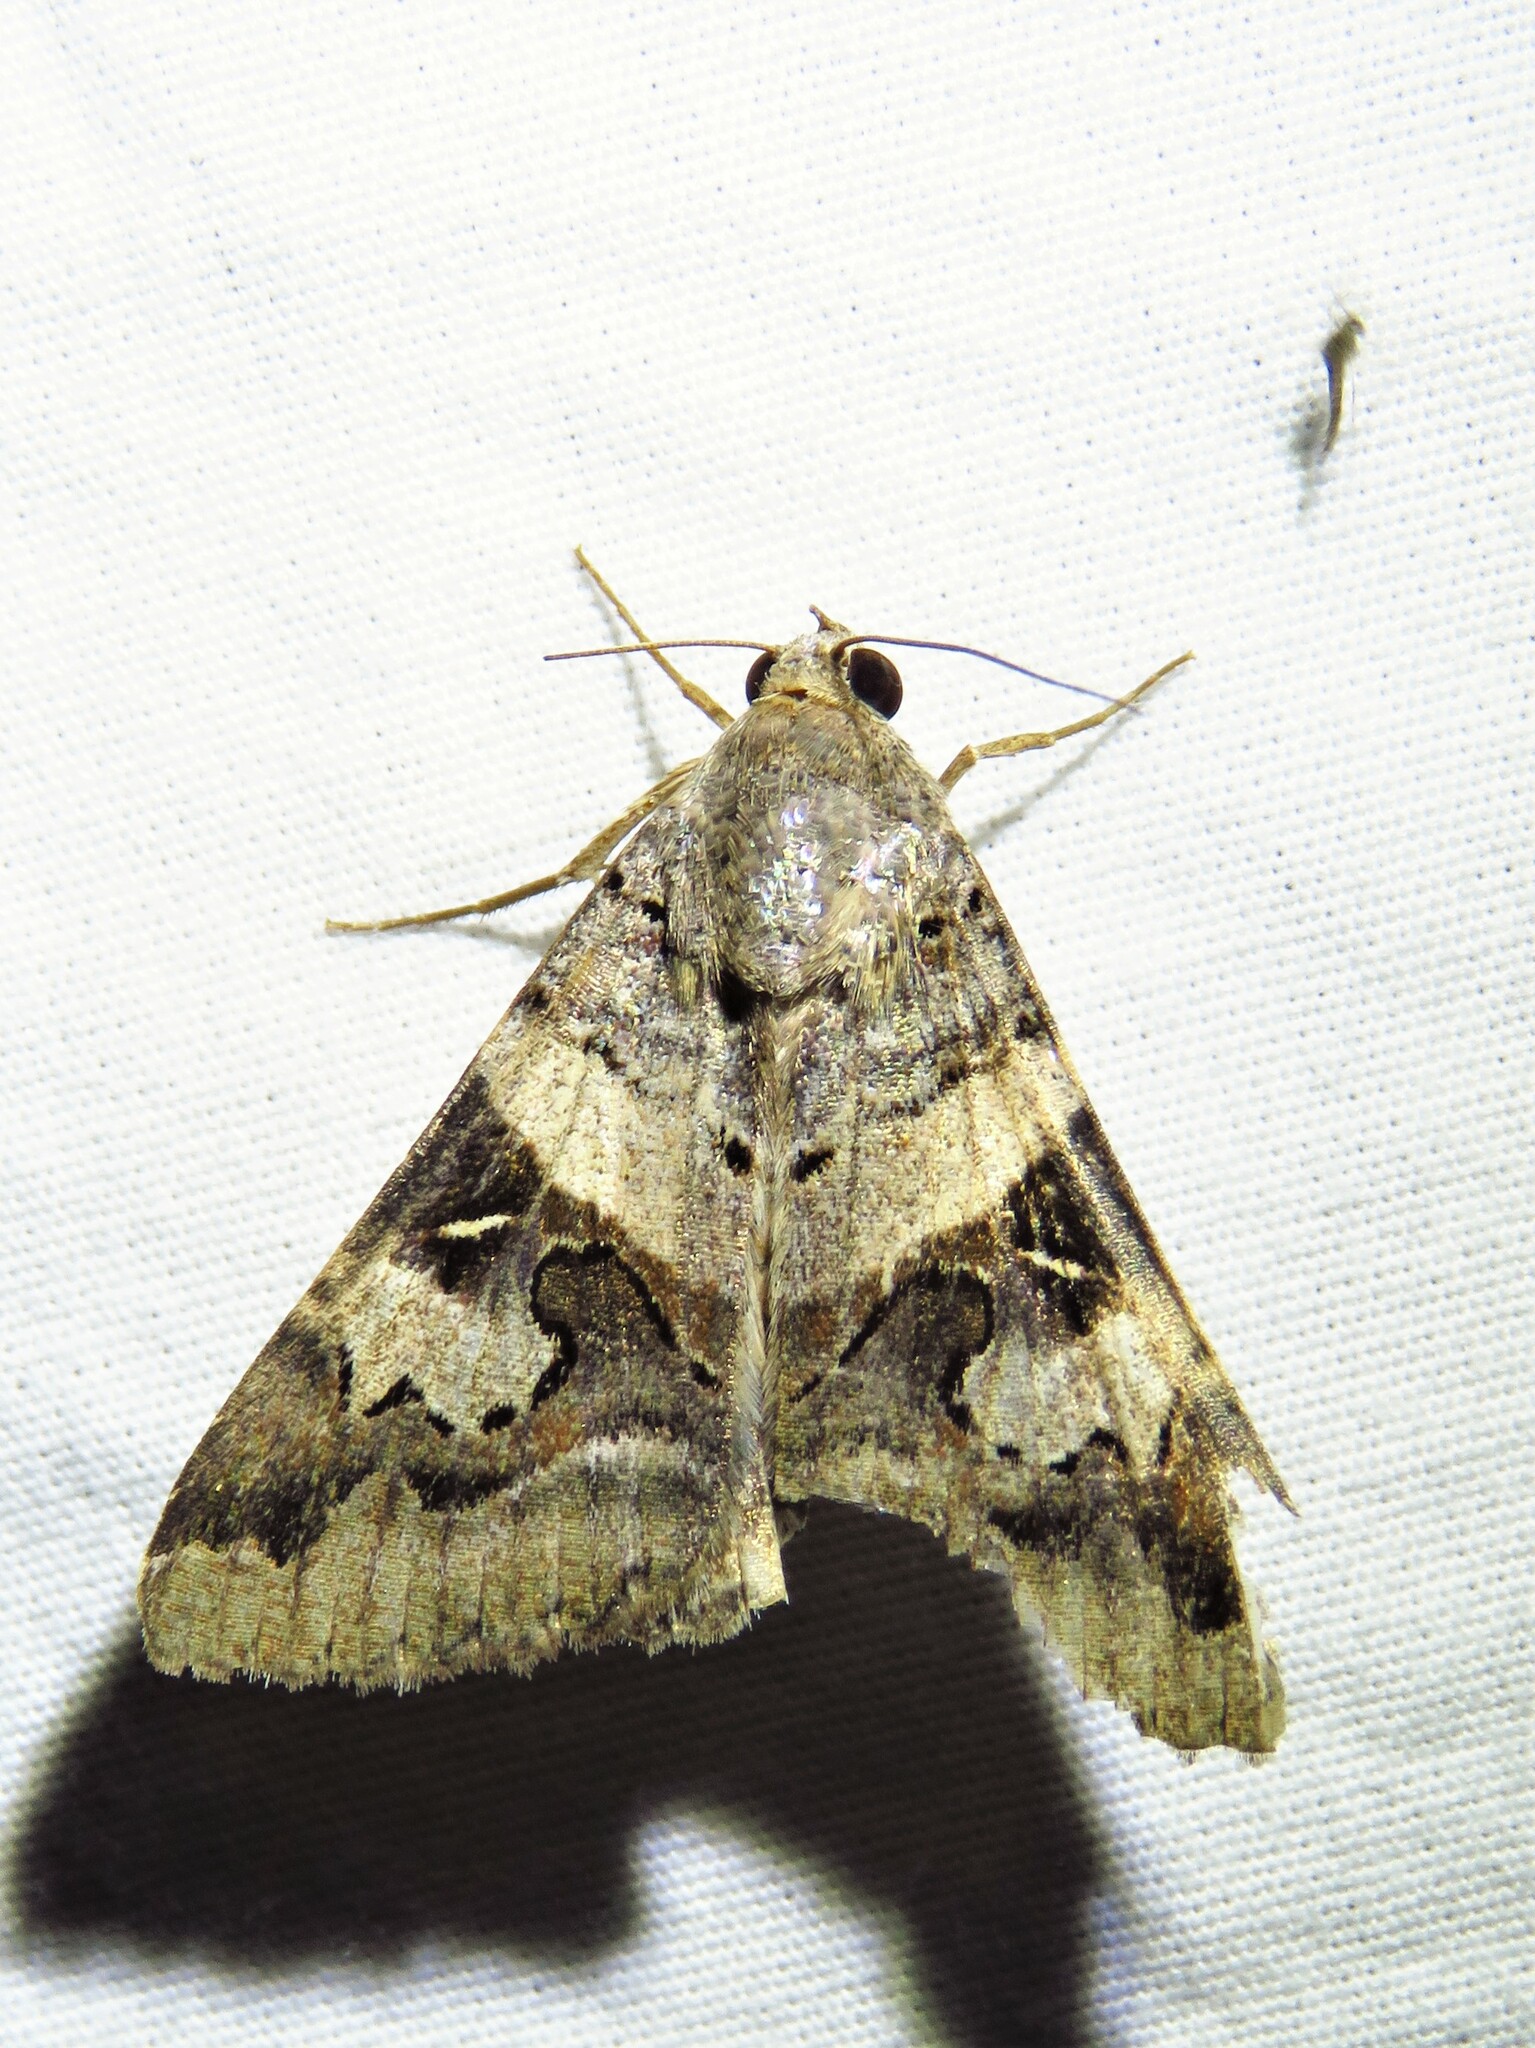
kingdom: Animalia
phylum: Arthropoda
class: Insecta
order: Lepidoptera
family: Erebidae
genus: Melipotis
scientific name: Melipotis indomita
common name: Moth
